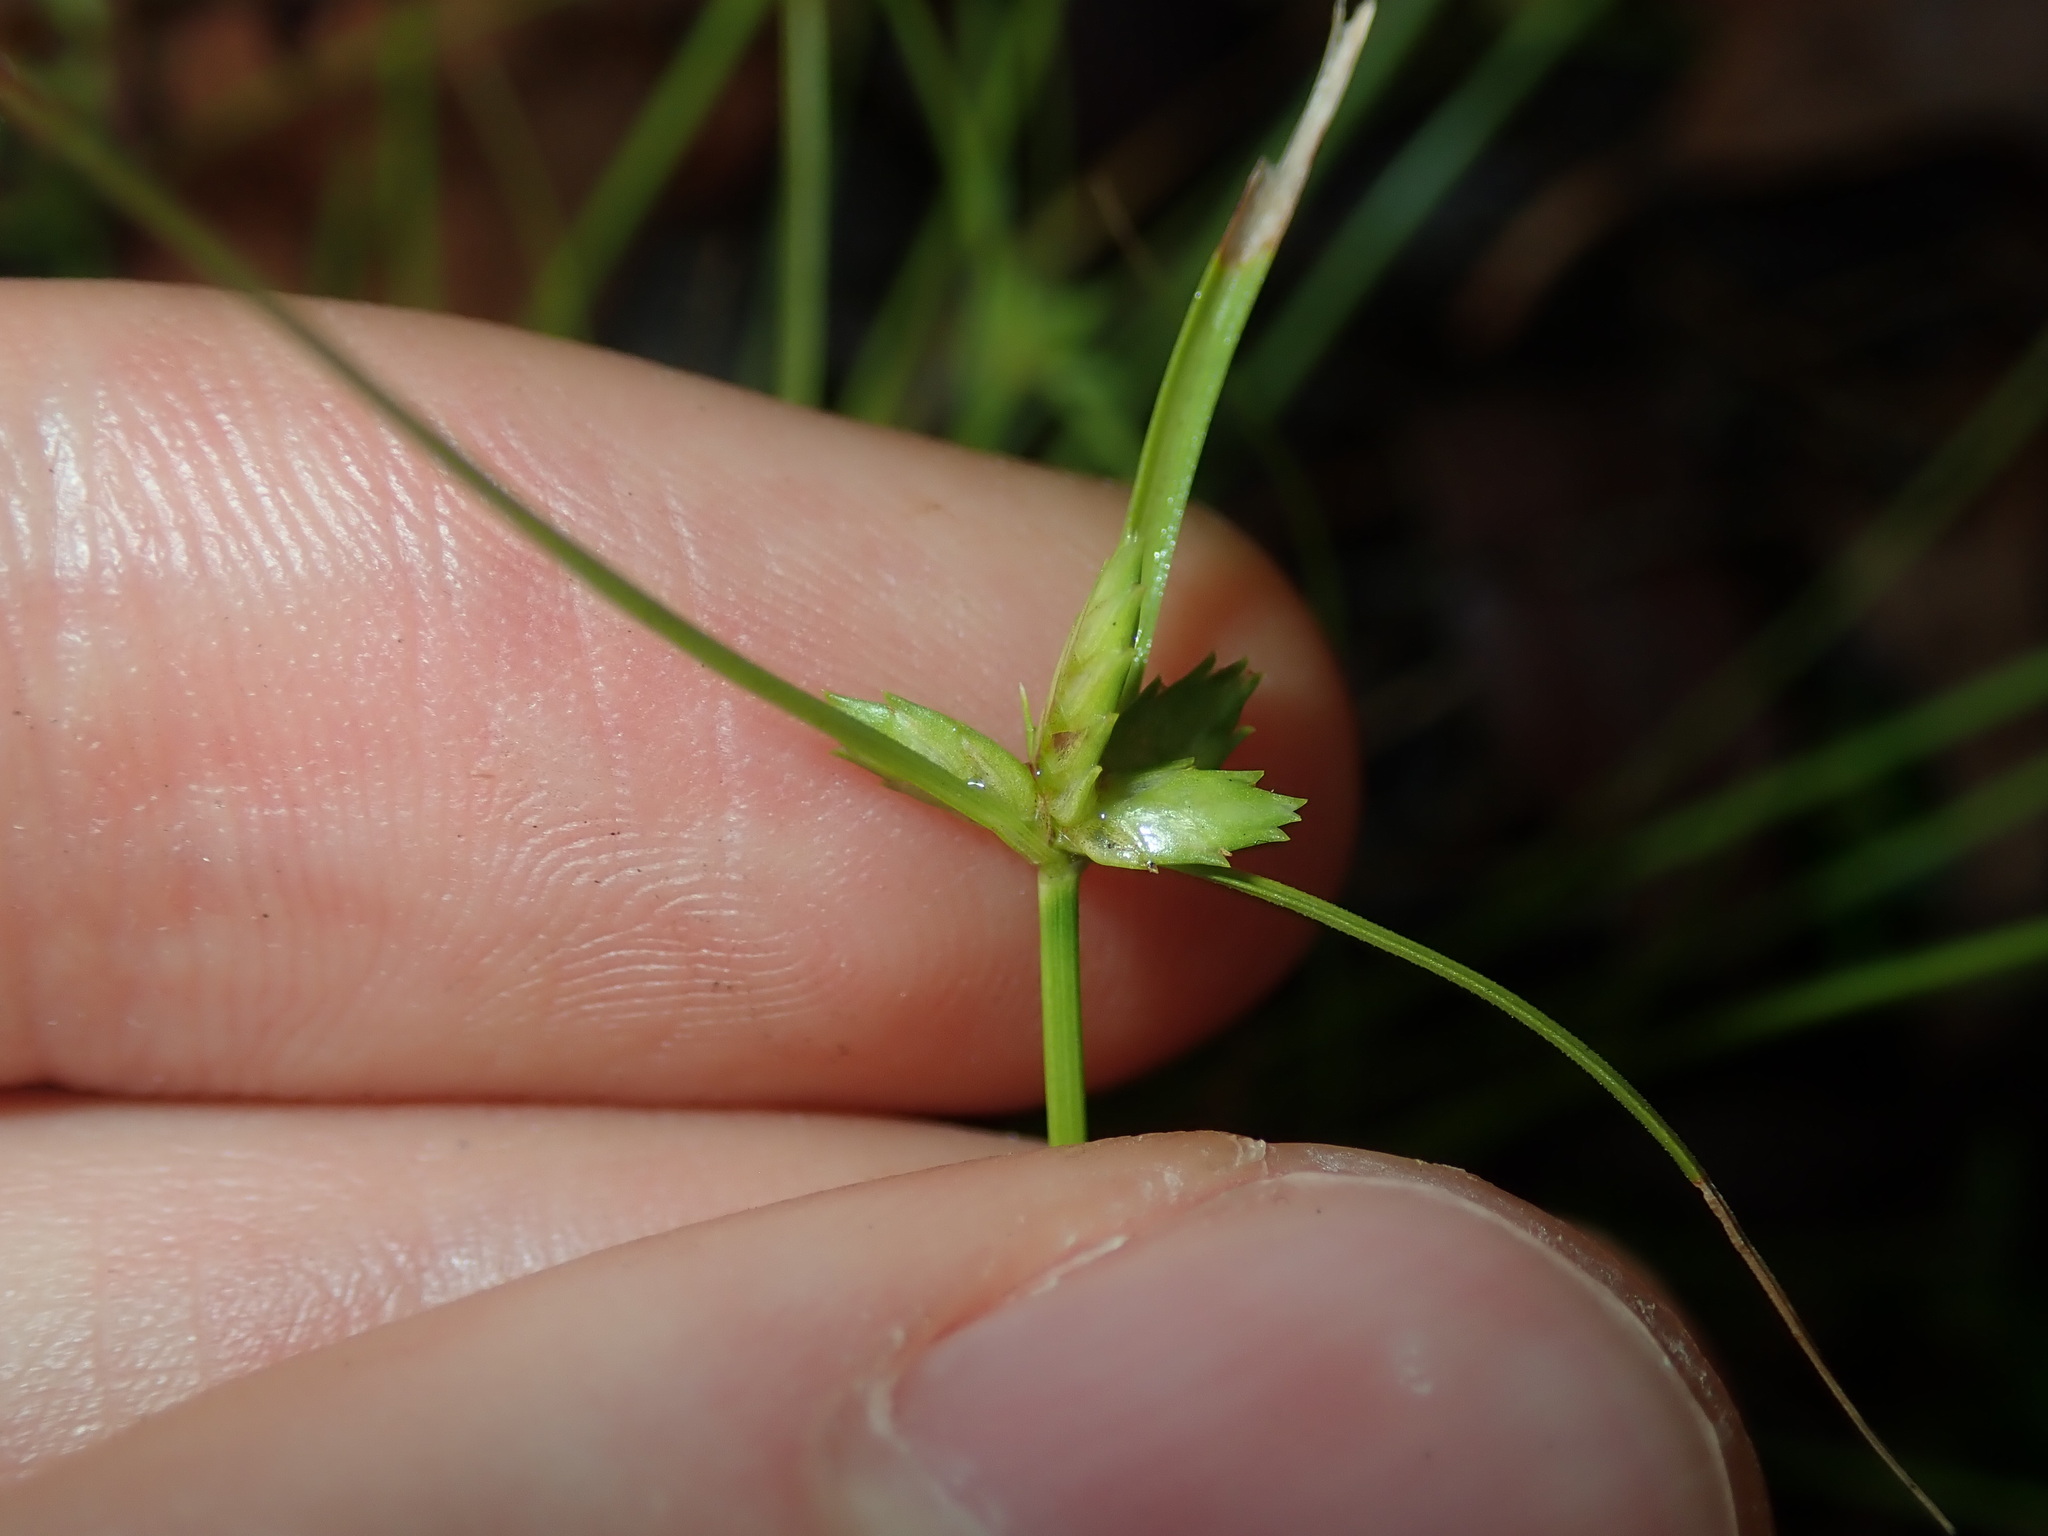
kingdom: Plantae
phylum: Tracheophyta
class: Liliopsida
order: Poales
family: Cyperaceae
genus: Cyperus
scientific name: Cyperus gracilis
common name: Slimjim flatsedge
